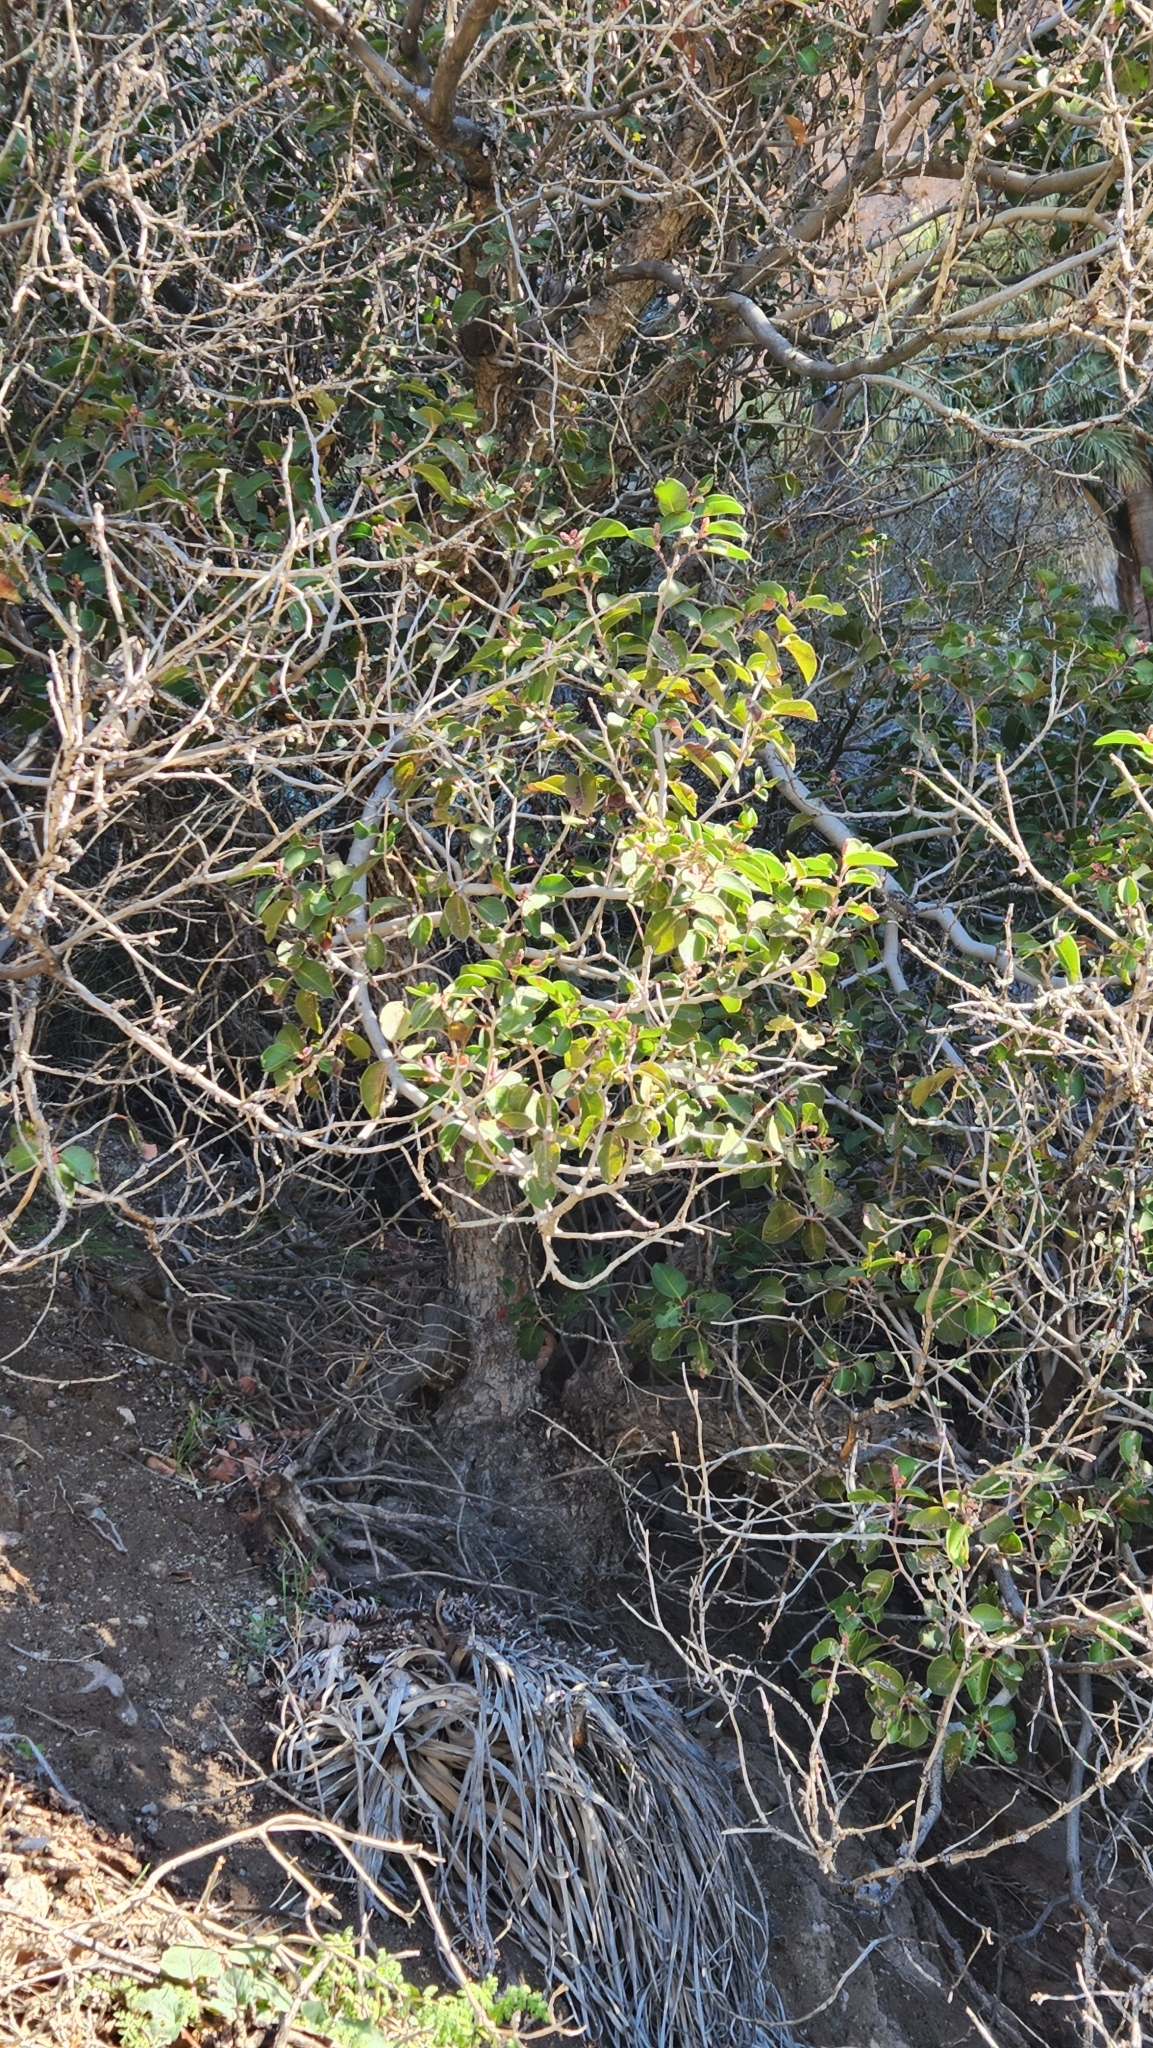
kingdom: Plantae
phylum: Tracheophyta
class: Magnoliopsida
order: Sapindales
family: Anacardiaceae
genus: Rhus
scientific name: Rhus ovata
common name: Sugar sumac
